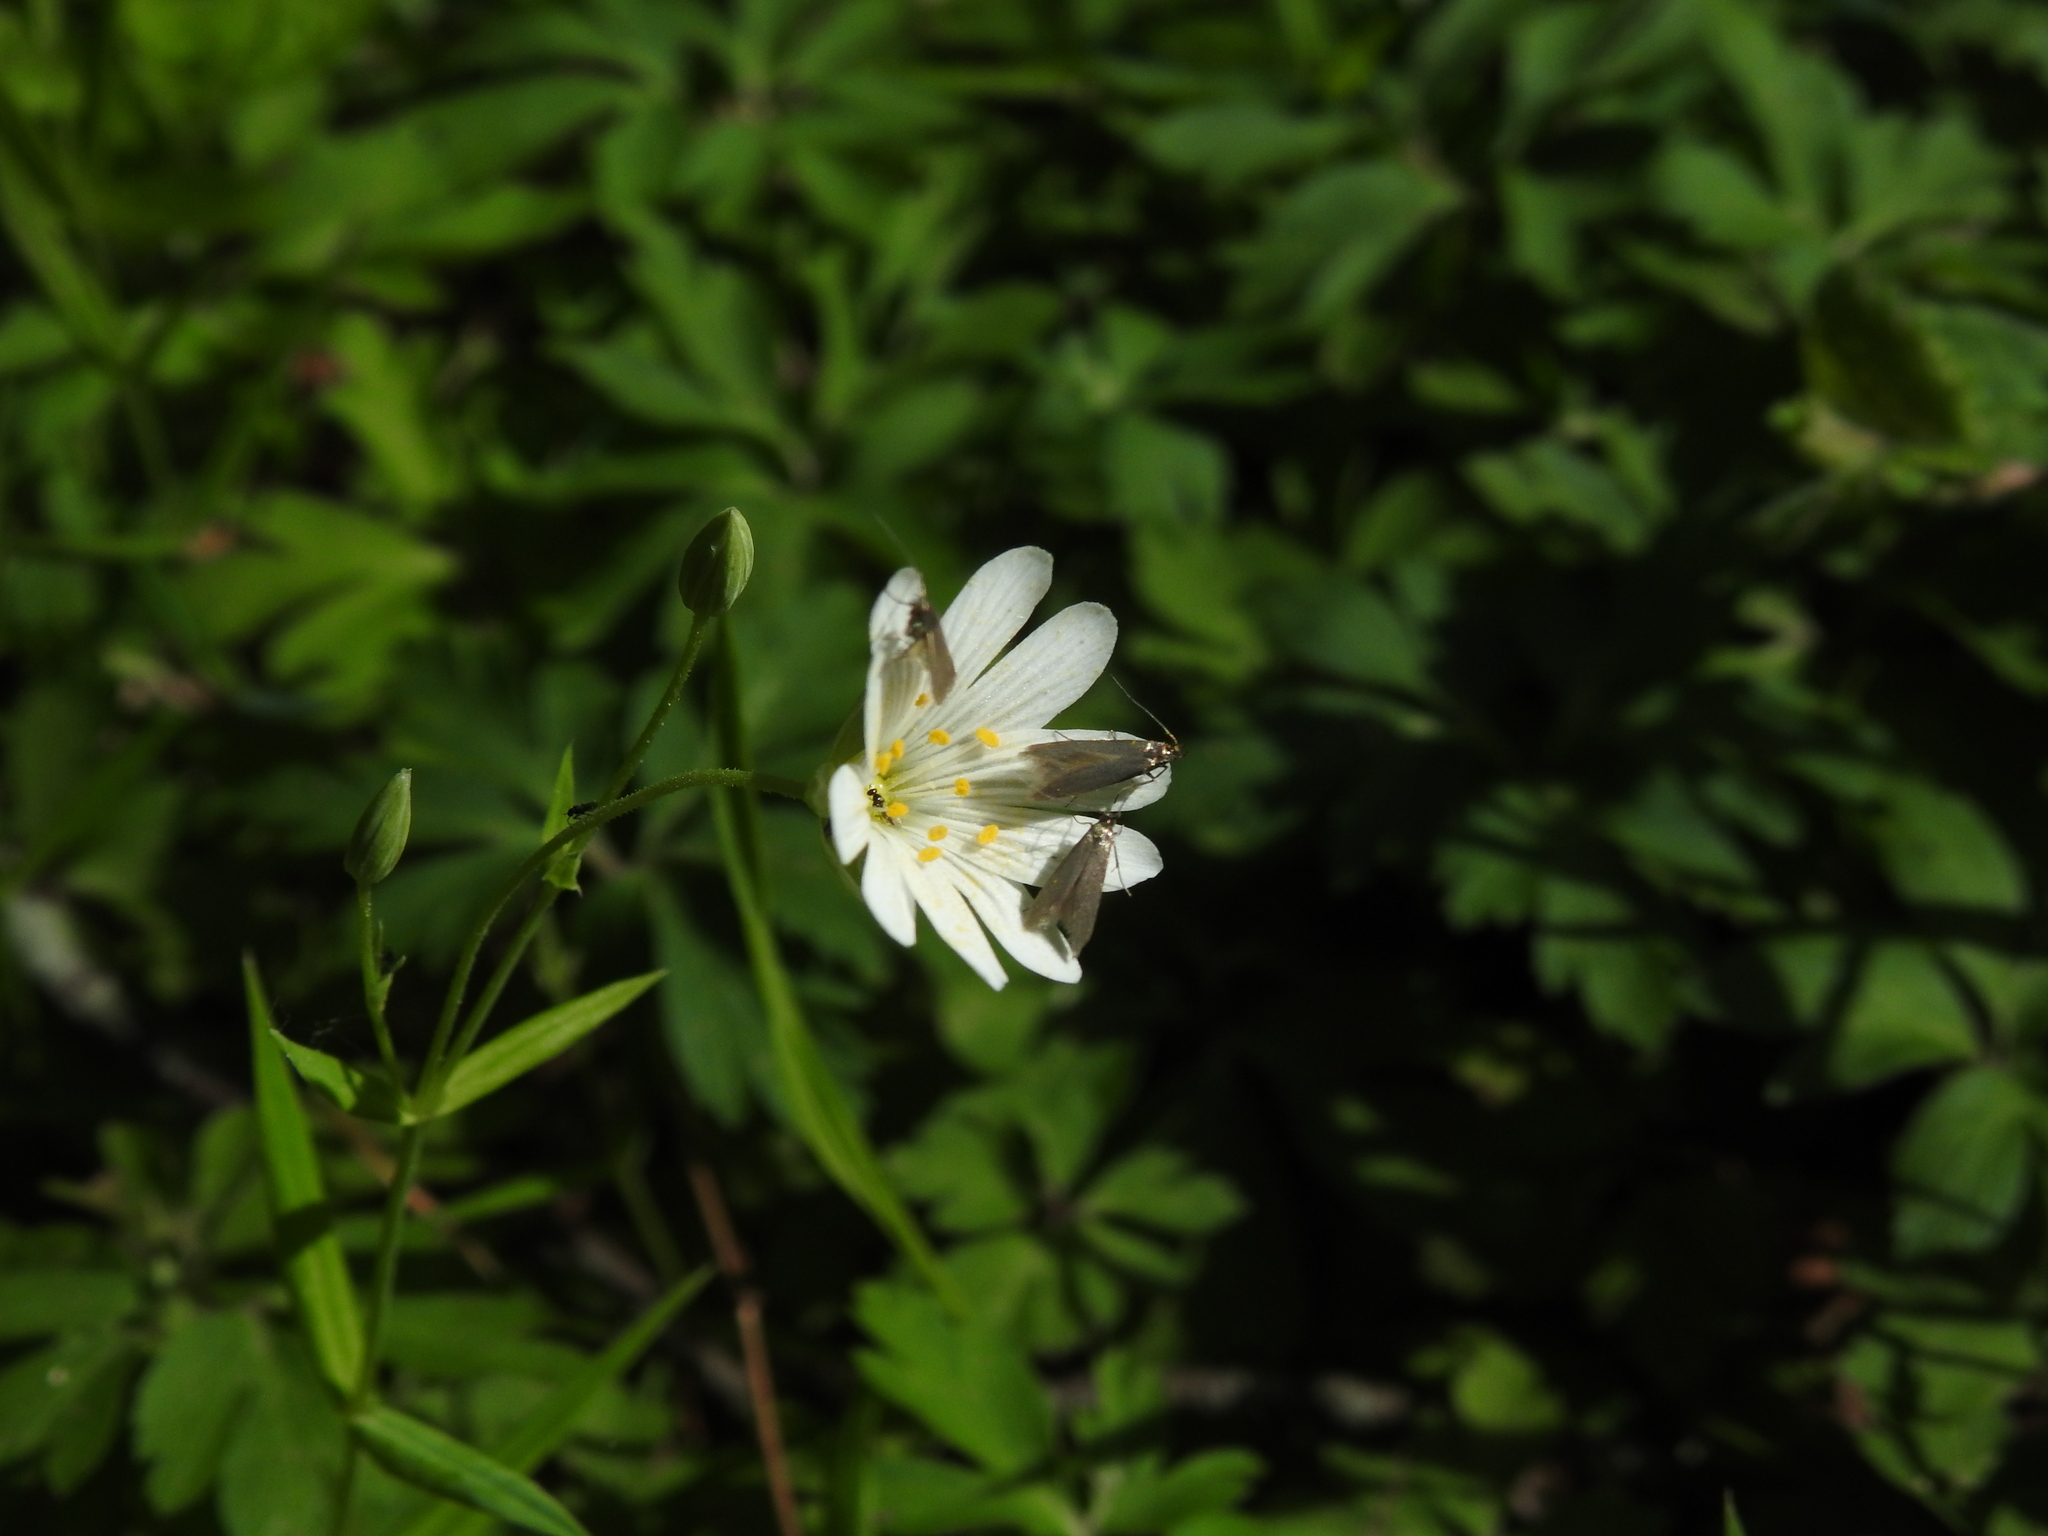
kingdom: Animalia
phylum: Arthropoda
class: Insecta
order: Lepidoptera
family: Coleophoridae
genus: Metriotes
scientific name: Metriotes lutarea
